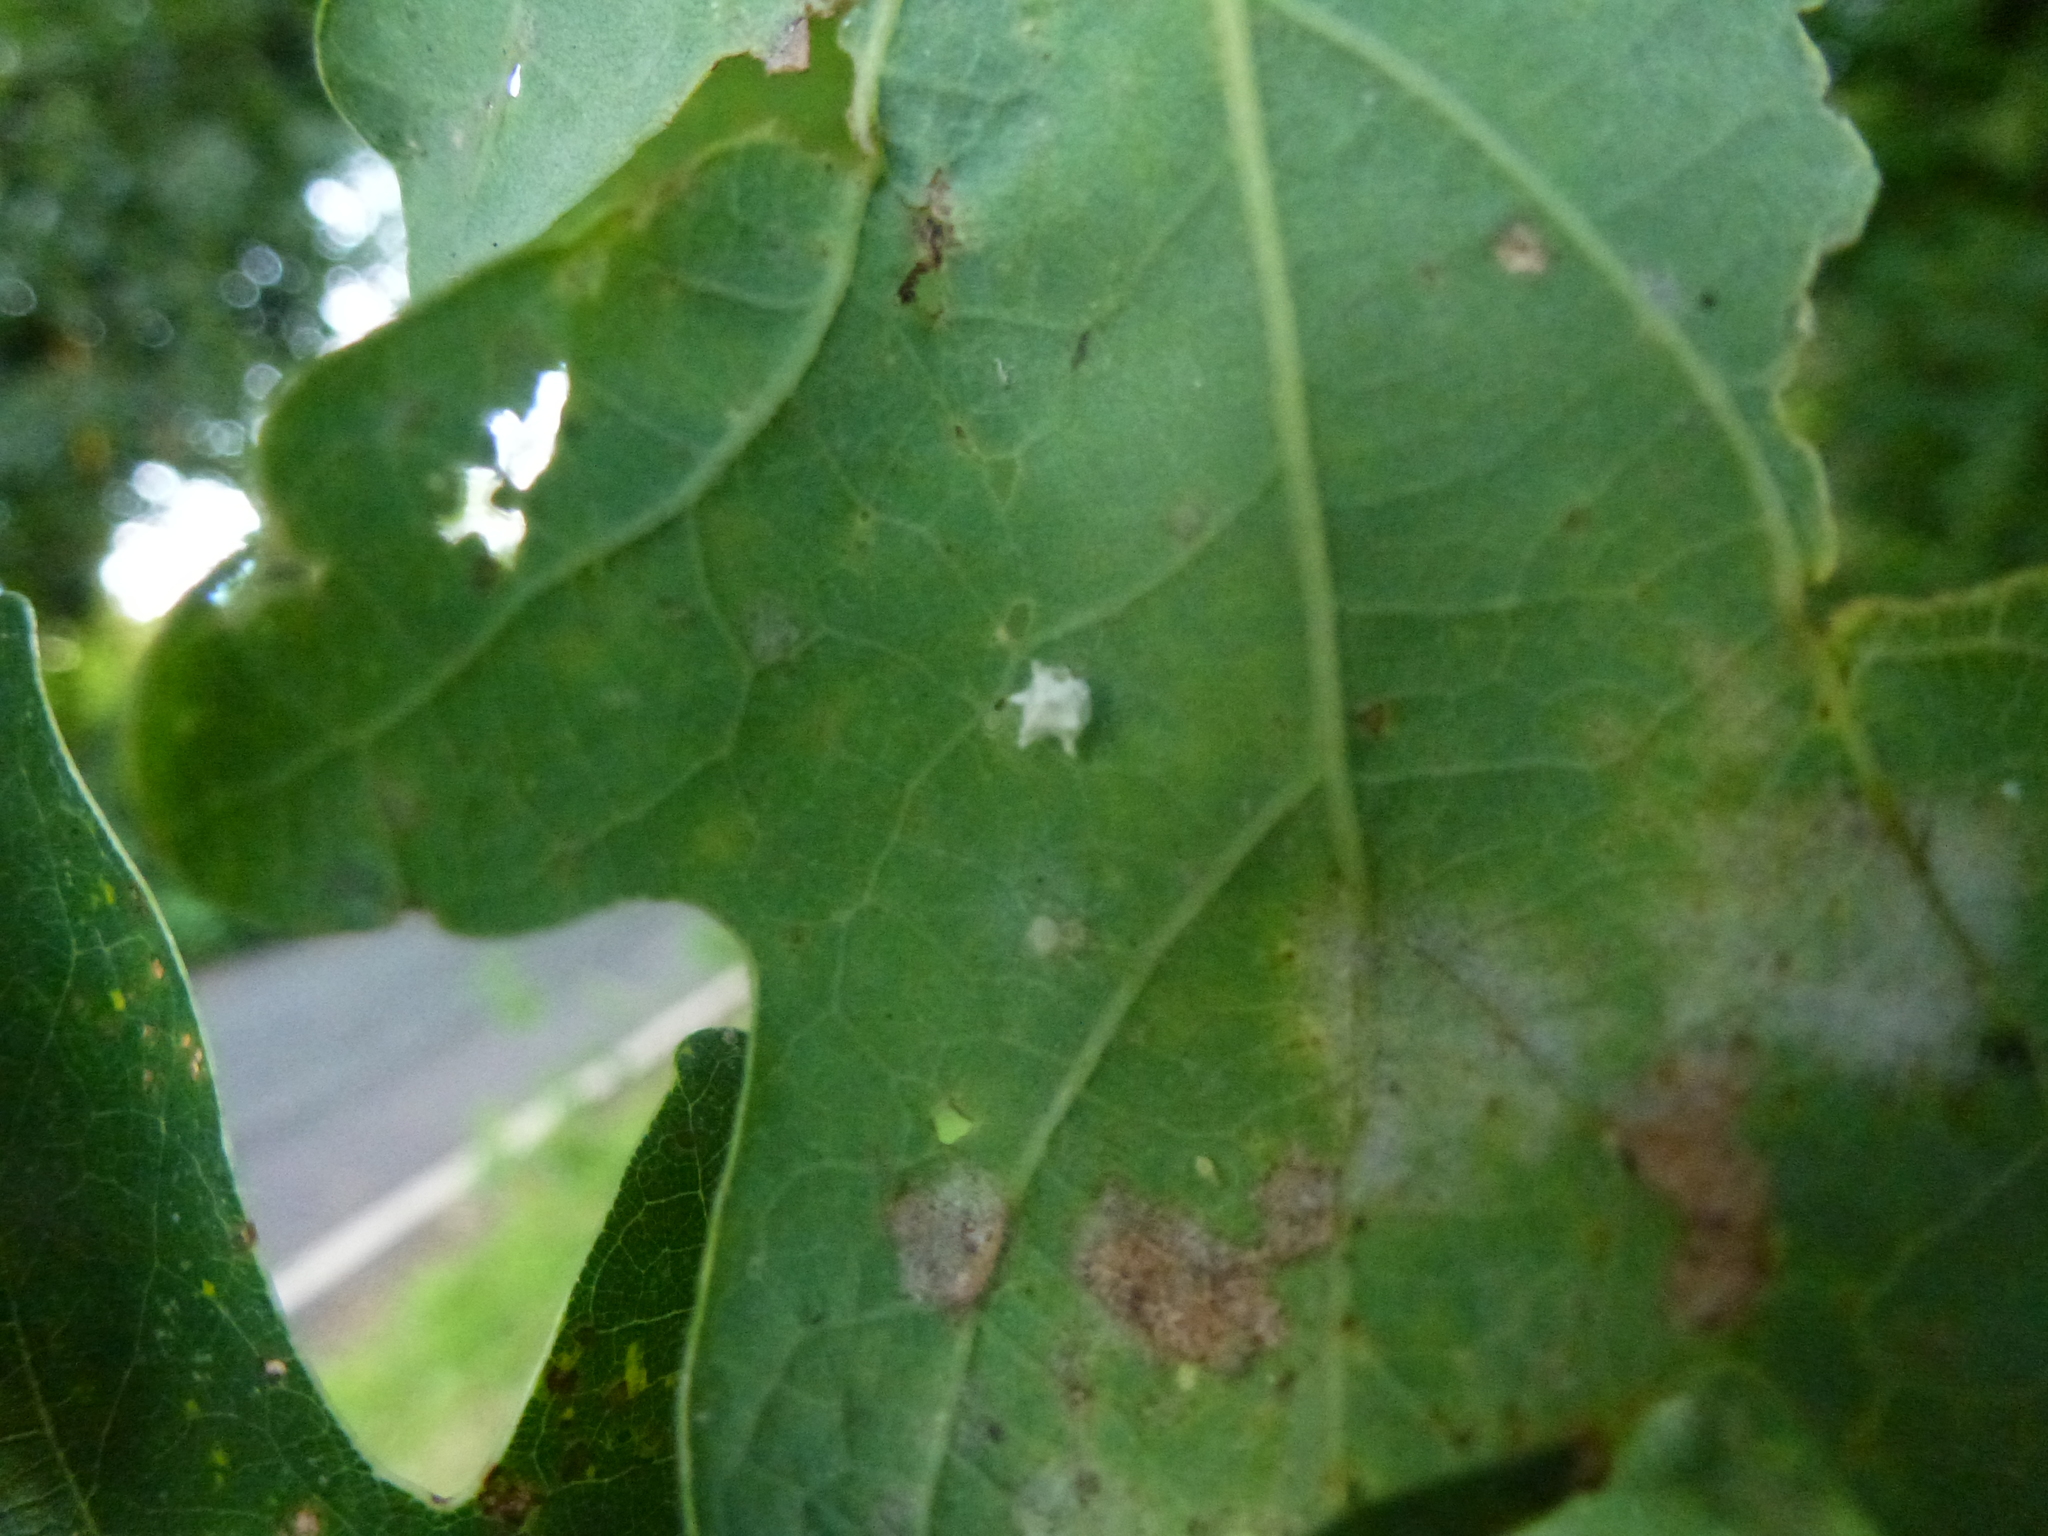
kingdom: Animalia
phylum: Arthropoda
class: Arachnida
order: Araneae
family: Theridiidae
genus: Paidiscura
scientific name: Paidiscura pallens
